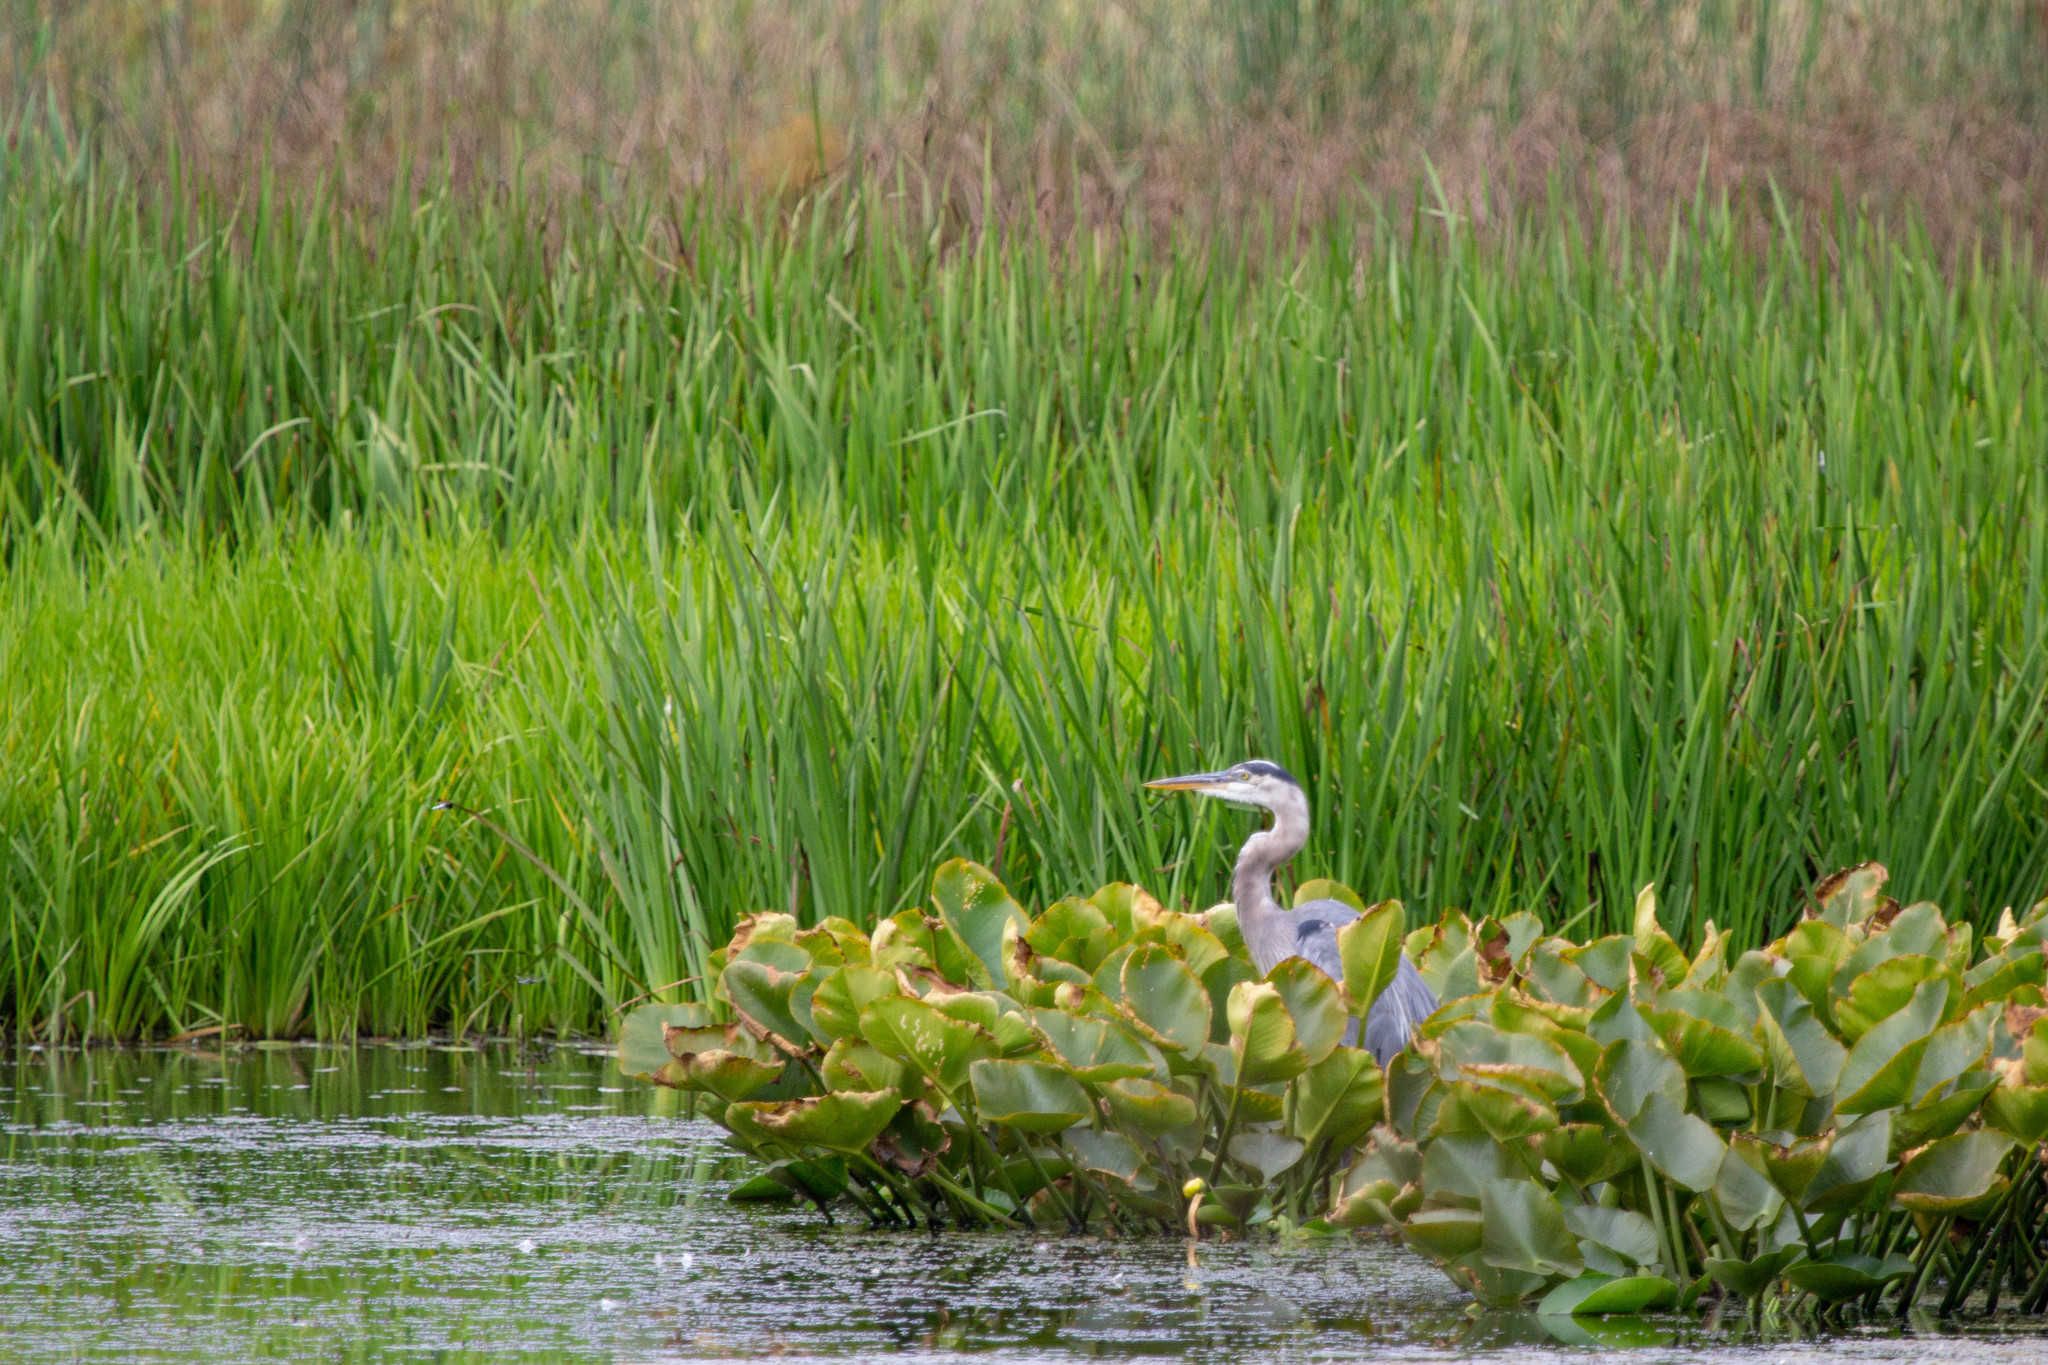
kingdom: Animalia
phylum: Chordata
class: Aves
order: Pelecaniformes
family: Ardeidae
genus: Ardea
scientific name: Ardea herodias
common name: Great blue heron
